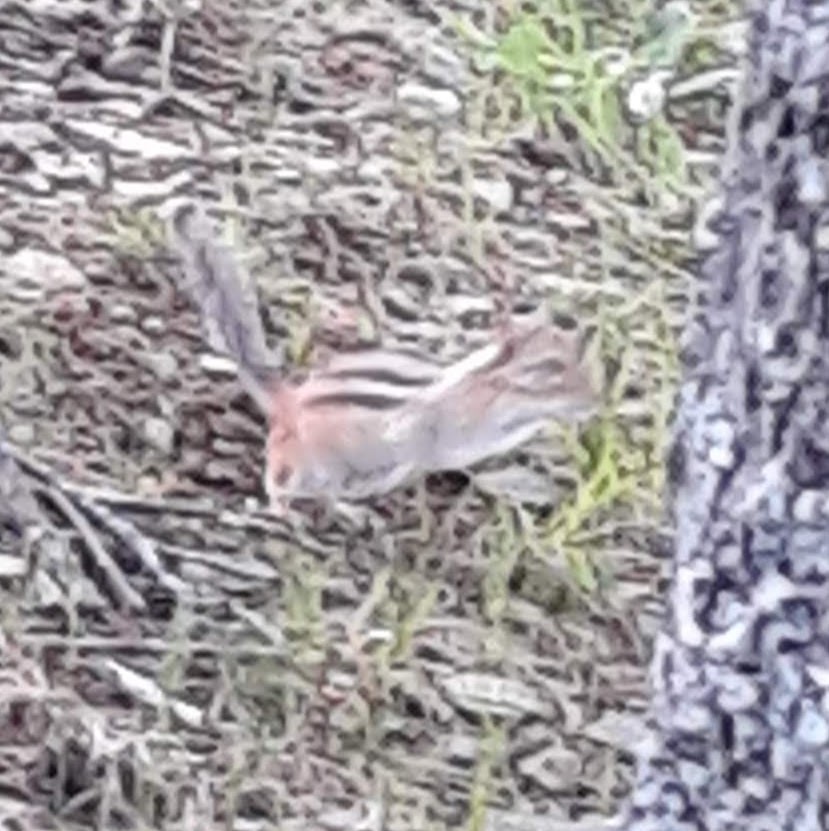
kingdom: Animalia
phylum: Chordata
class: Mammalia
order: Rodentia
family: Sciuridae
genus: Tamias
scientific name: Tamias striatus
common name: Eastern chipmunk
